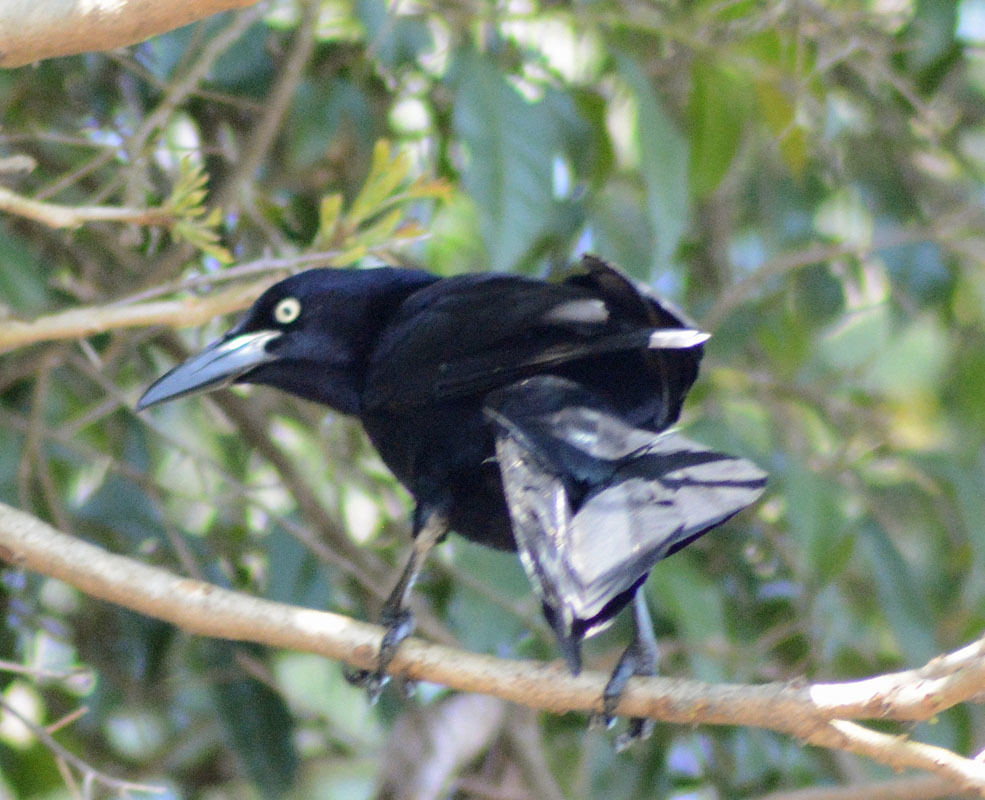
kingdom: Animalia
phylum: Chordata
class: Aves
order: Passeriformes
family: Icteridae
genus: Quiscalus
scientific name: Quiscalus mexicanus
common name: Great-tailed grackle
